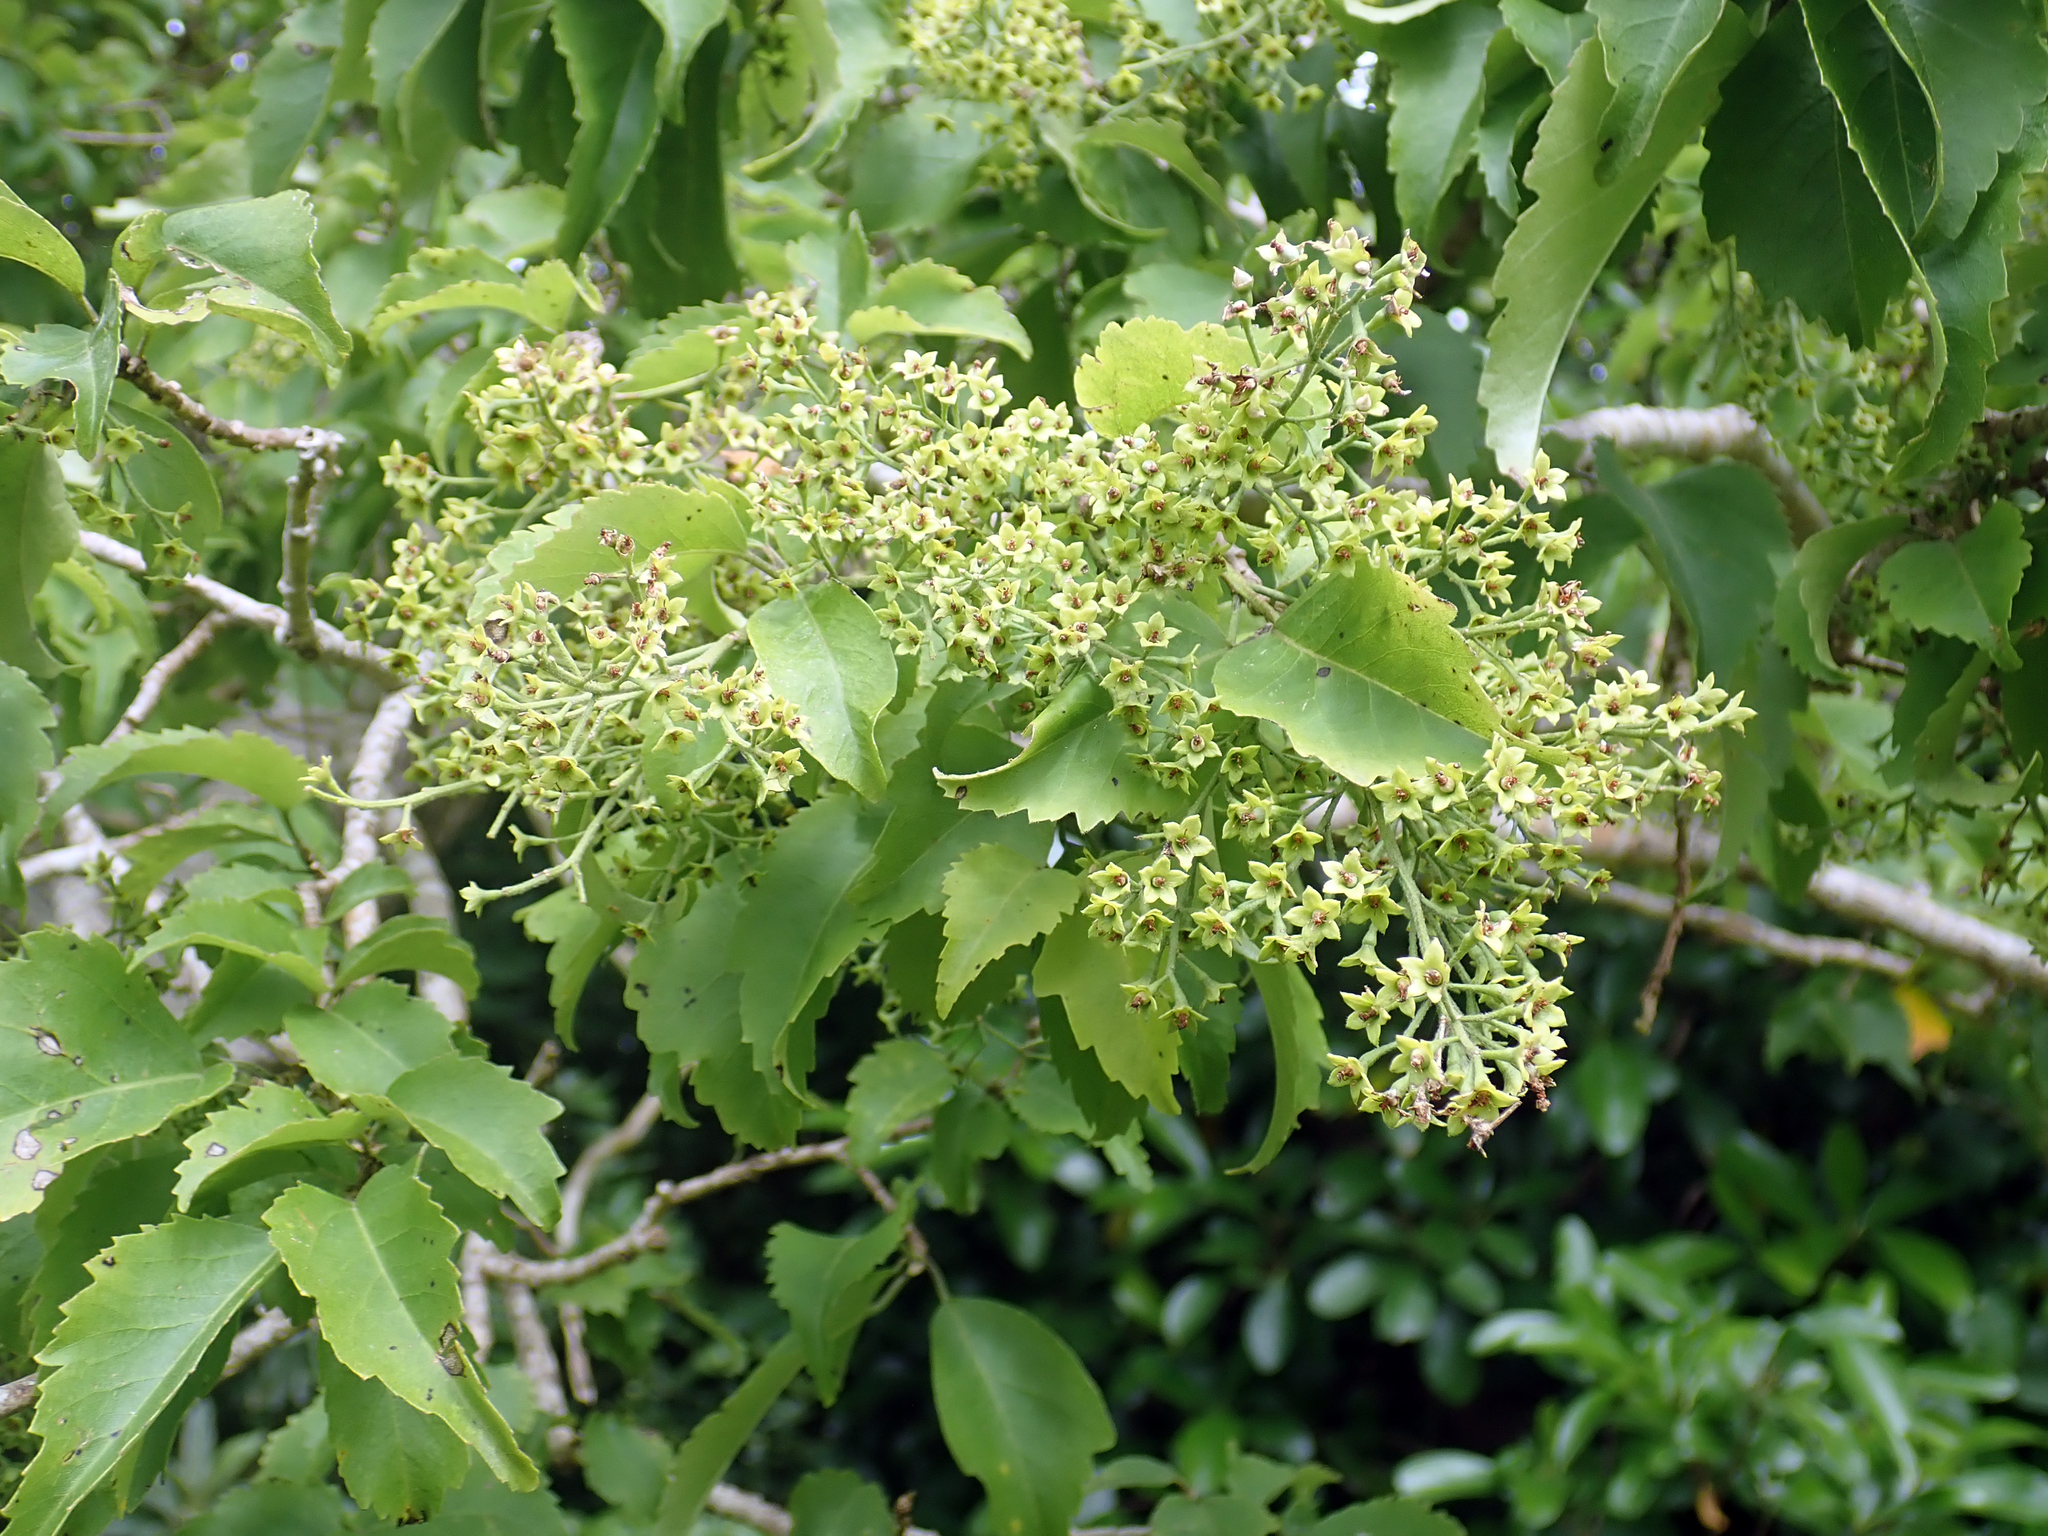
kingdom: Plantae
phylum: Tracheophyta
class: Magnoliopsida
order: Malvales
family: Malvaceae
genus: Plagianthus
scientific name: Plagianthus regius
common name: Manatu
